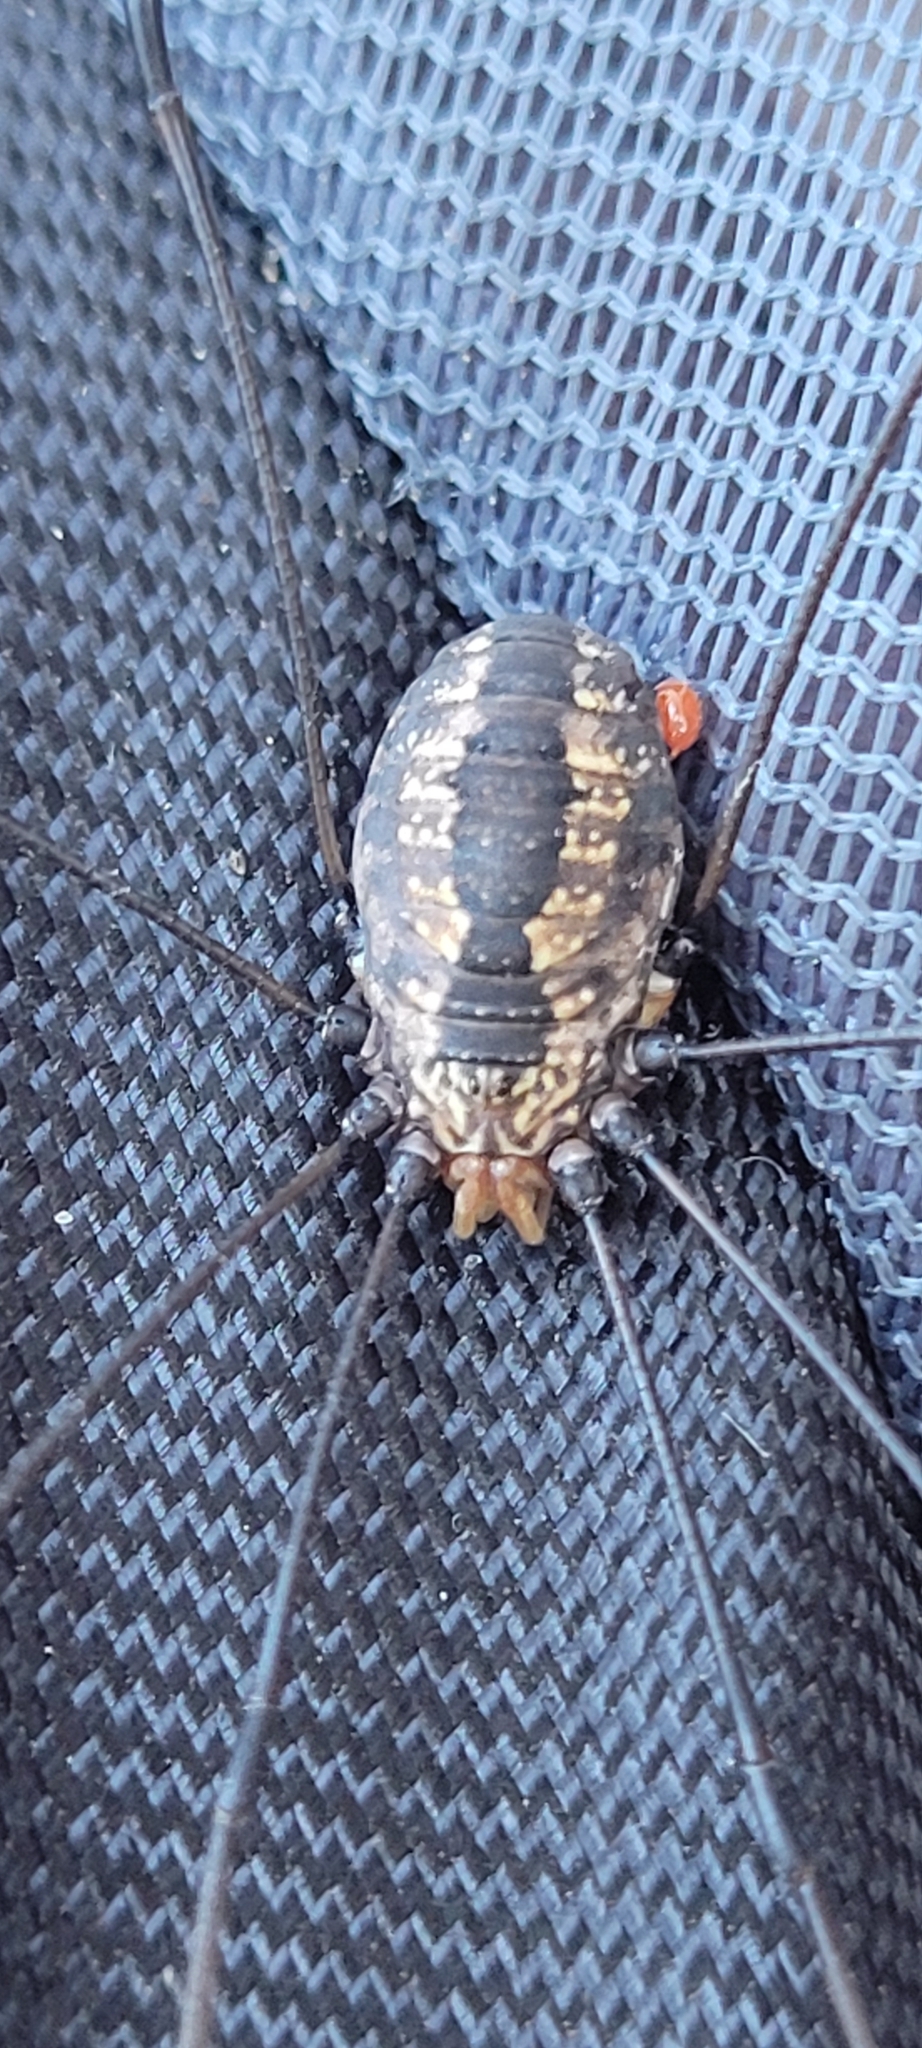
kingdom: Animalia
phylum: Arthropoda
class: Arachnida
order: Opiliones
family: Sclerosomatidae
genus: Leiobunum
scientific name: Leiobunum vittatum
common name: Eastern harvestman
